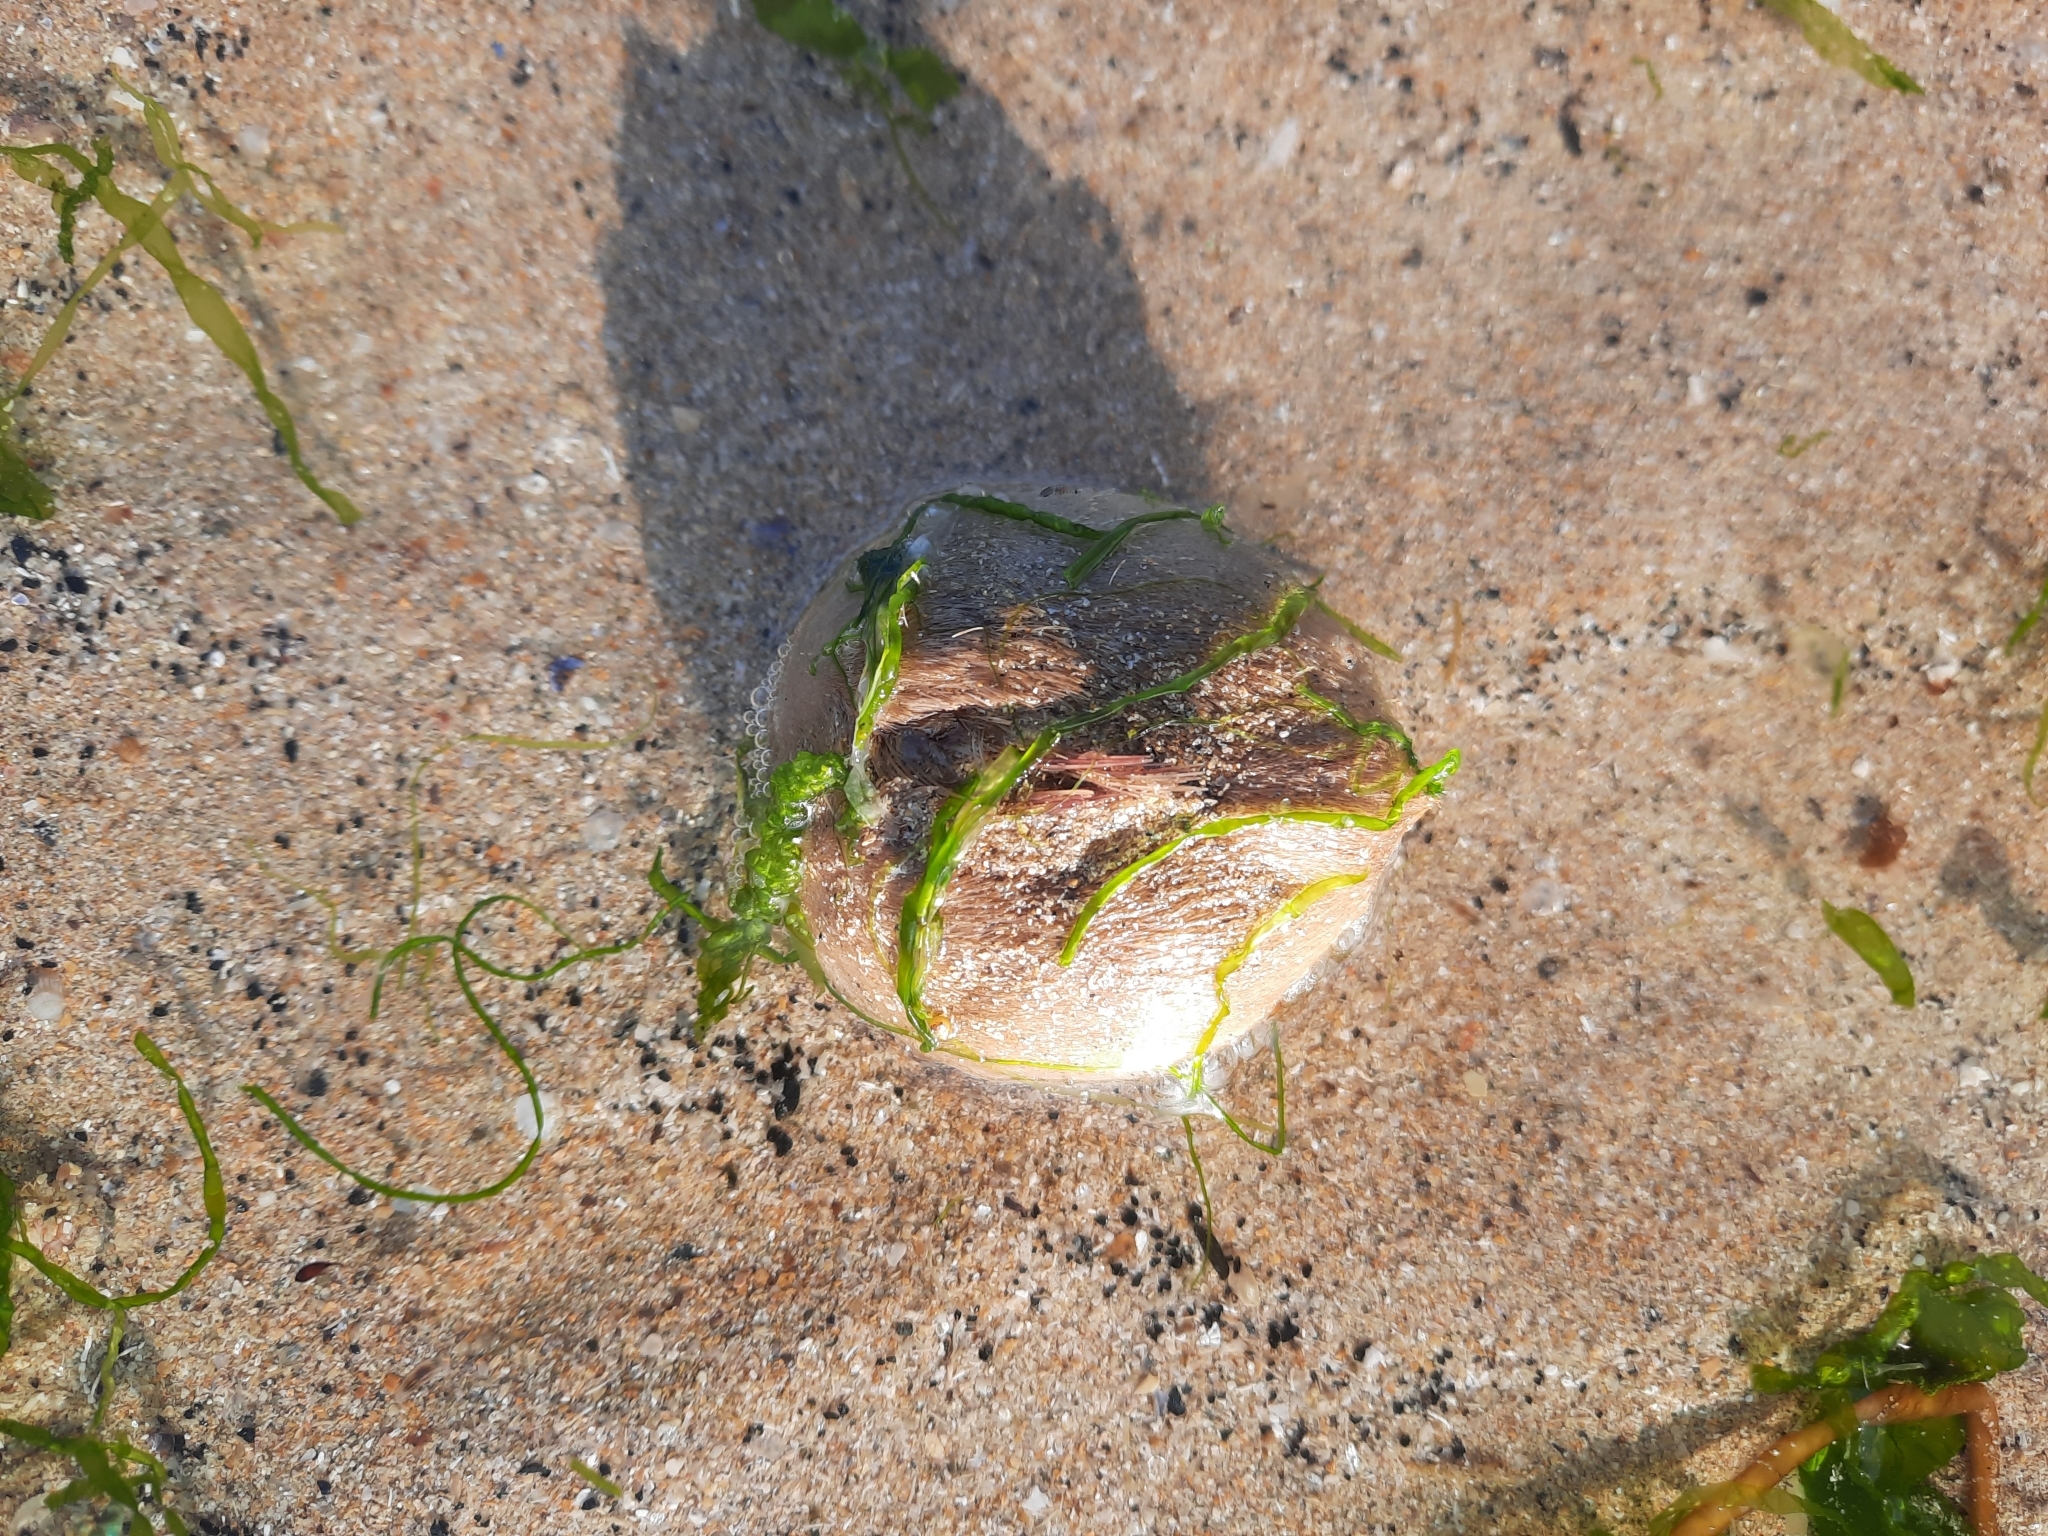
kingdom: Animalia
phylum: Echinodermata
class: Echinoidea
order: Spatangoida
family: Loveniidae
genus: Echinocardium
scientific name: Echinocardium cordatum
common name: Heart-urchin
